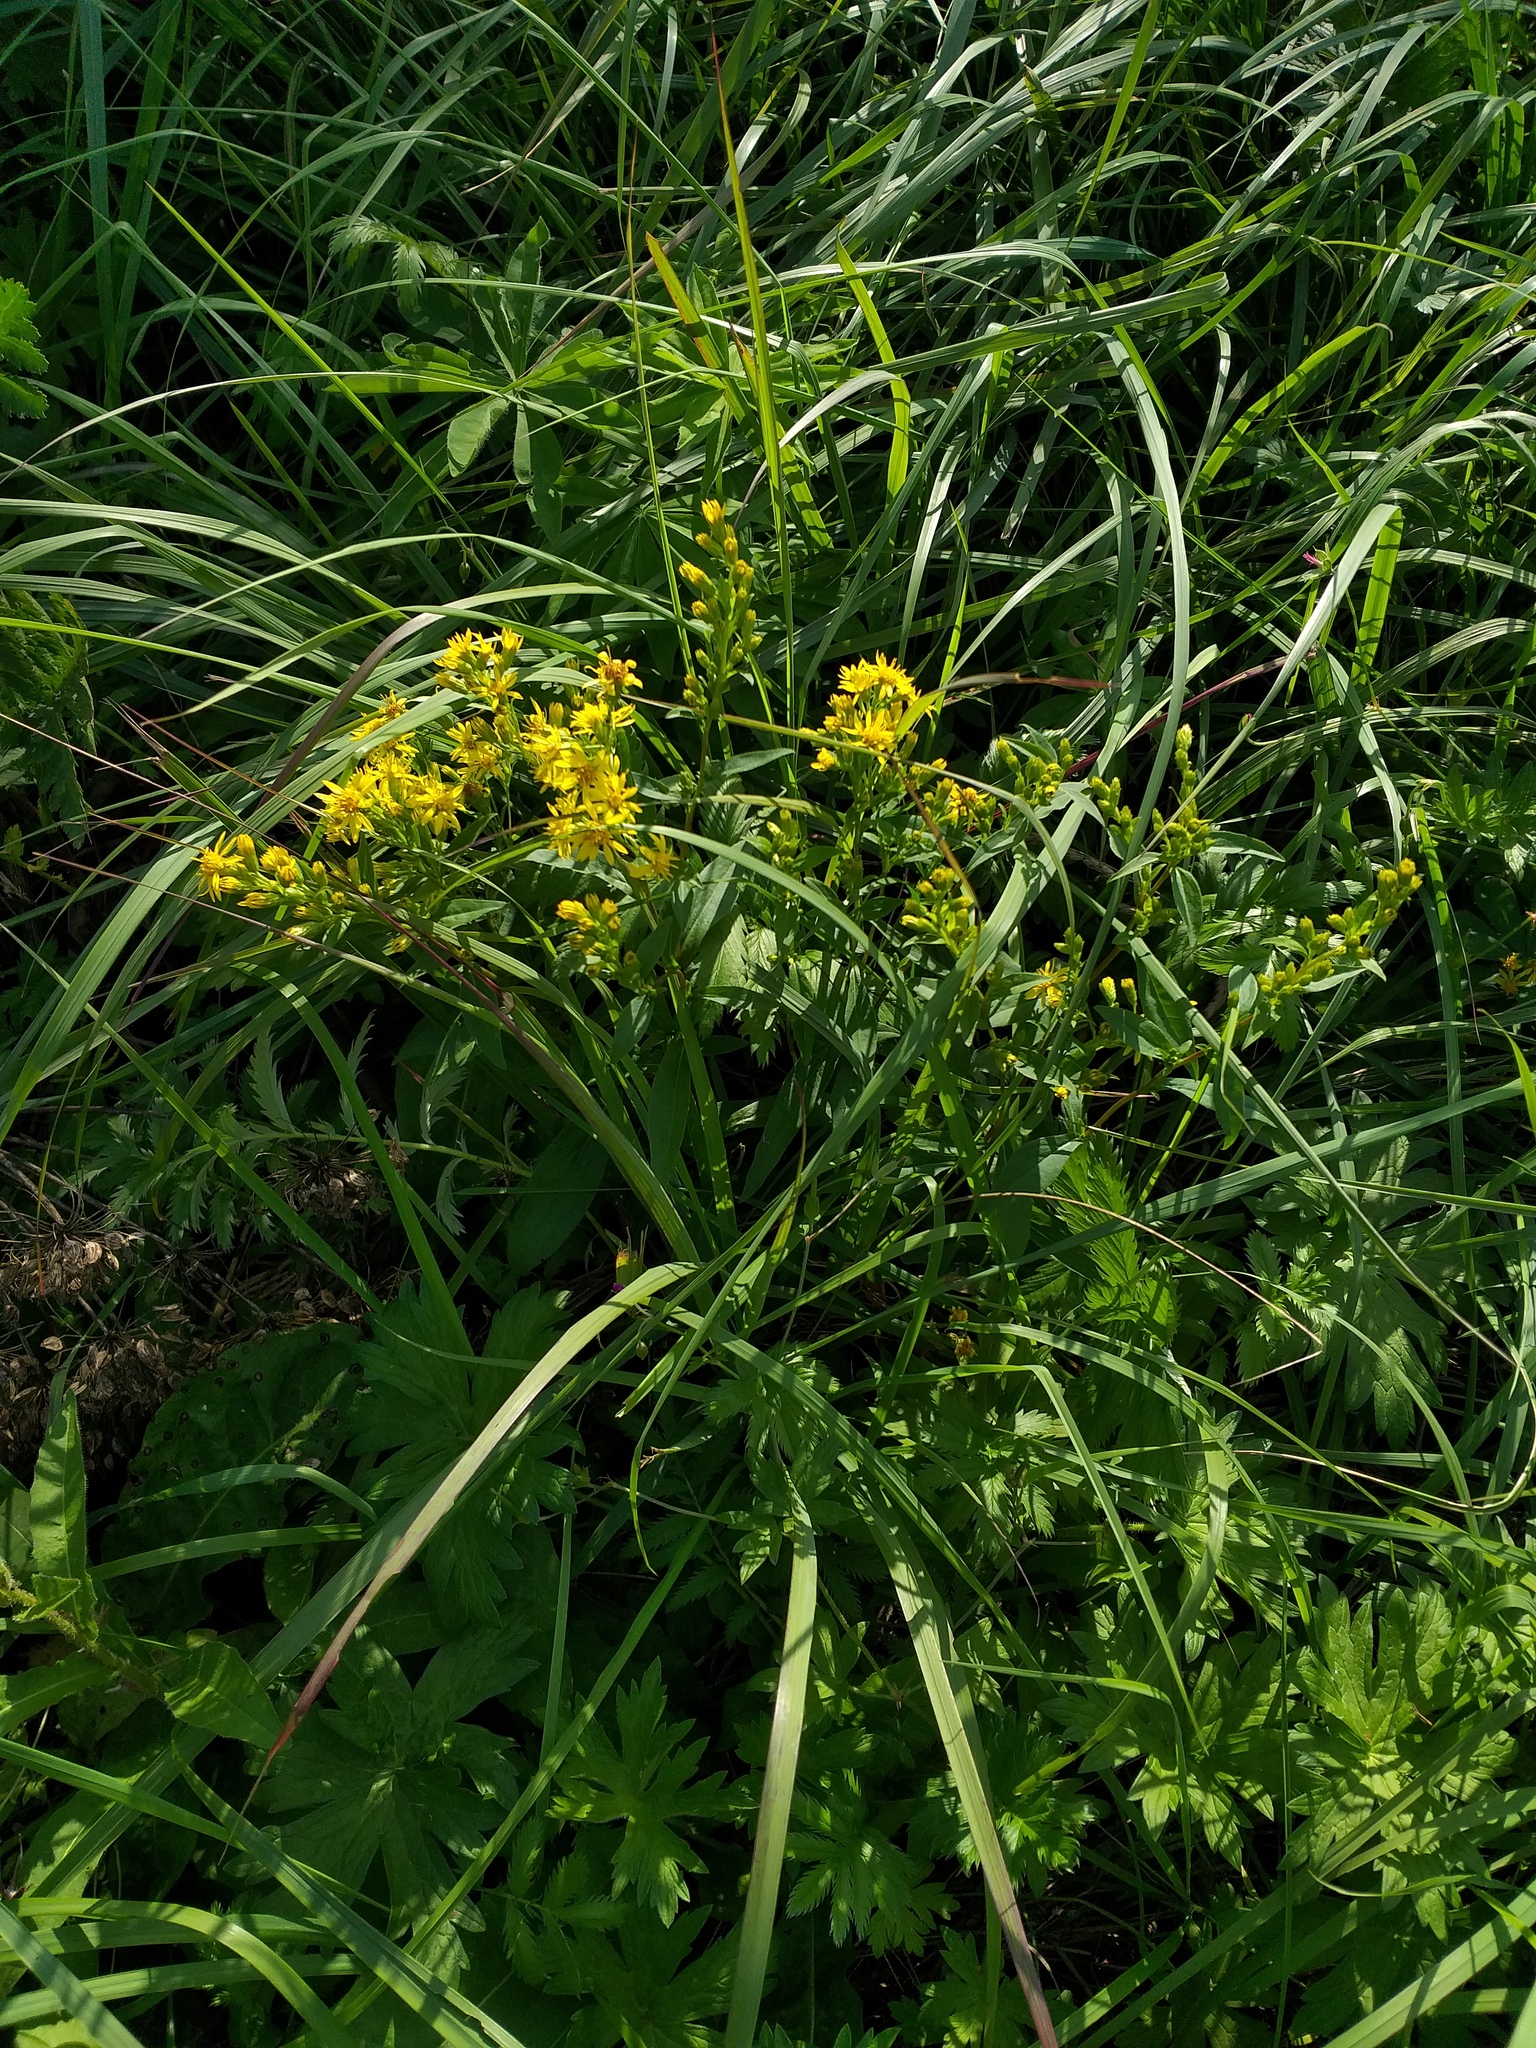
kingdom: Plantae
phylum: Tracheophyta
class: Magnoliopsida
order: Asterales
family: Asteraceae
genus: Solidago
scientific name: Solidago virgaurea
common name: Goldenrod
